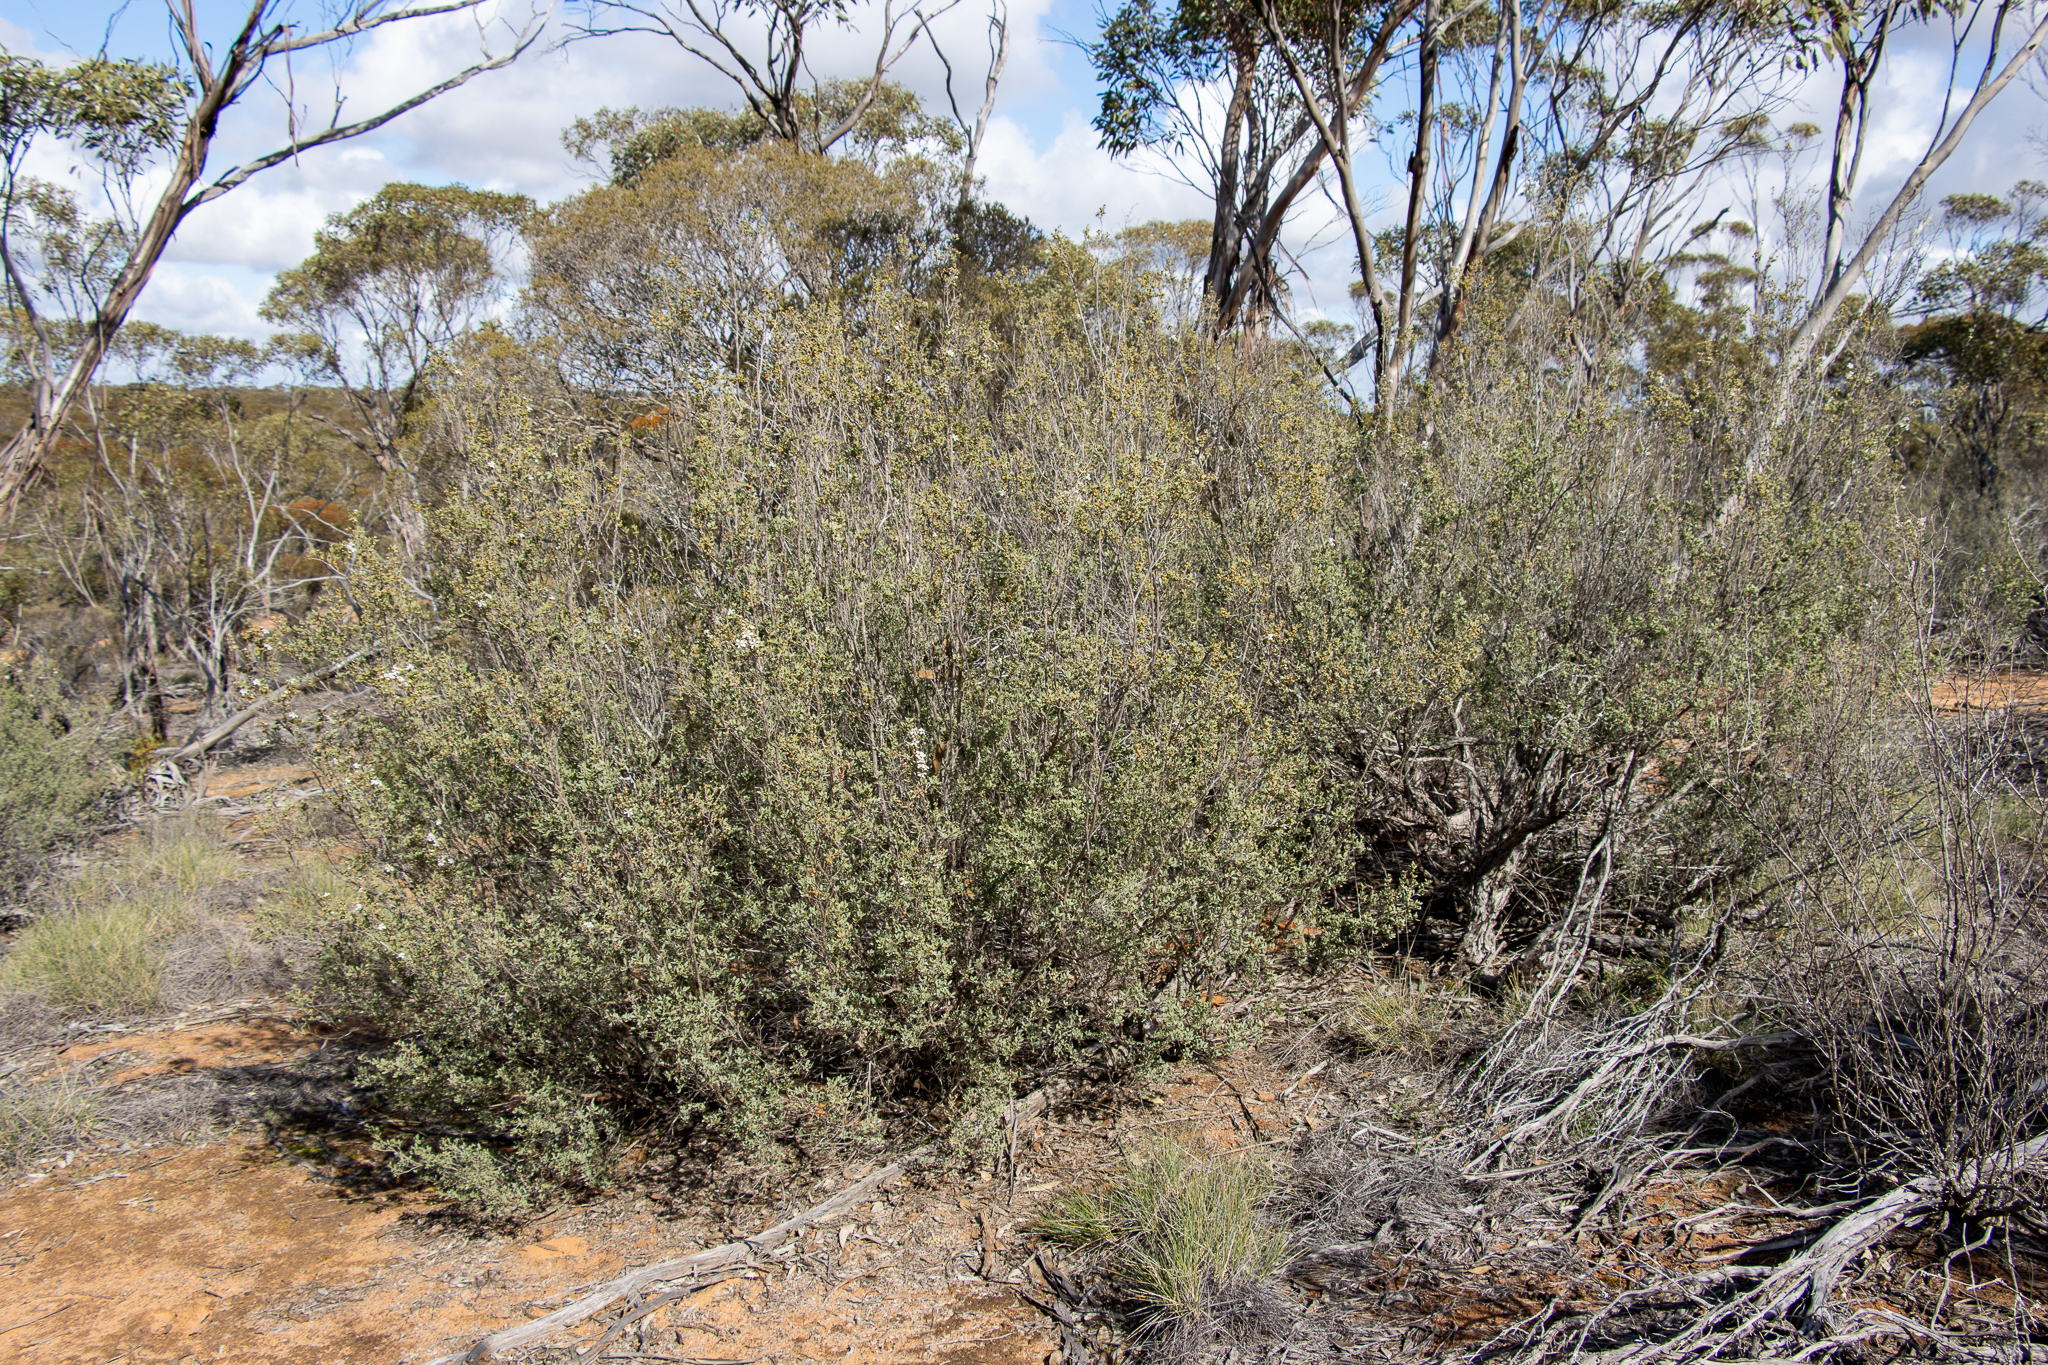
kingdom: Plantae
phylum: Tracheophyta
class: Magnoliopsida
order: Myrtales
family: Myrtaceae
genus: Leptospermum
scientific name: Leptospermum coriaceum
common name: Mallee teatree
